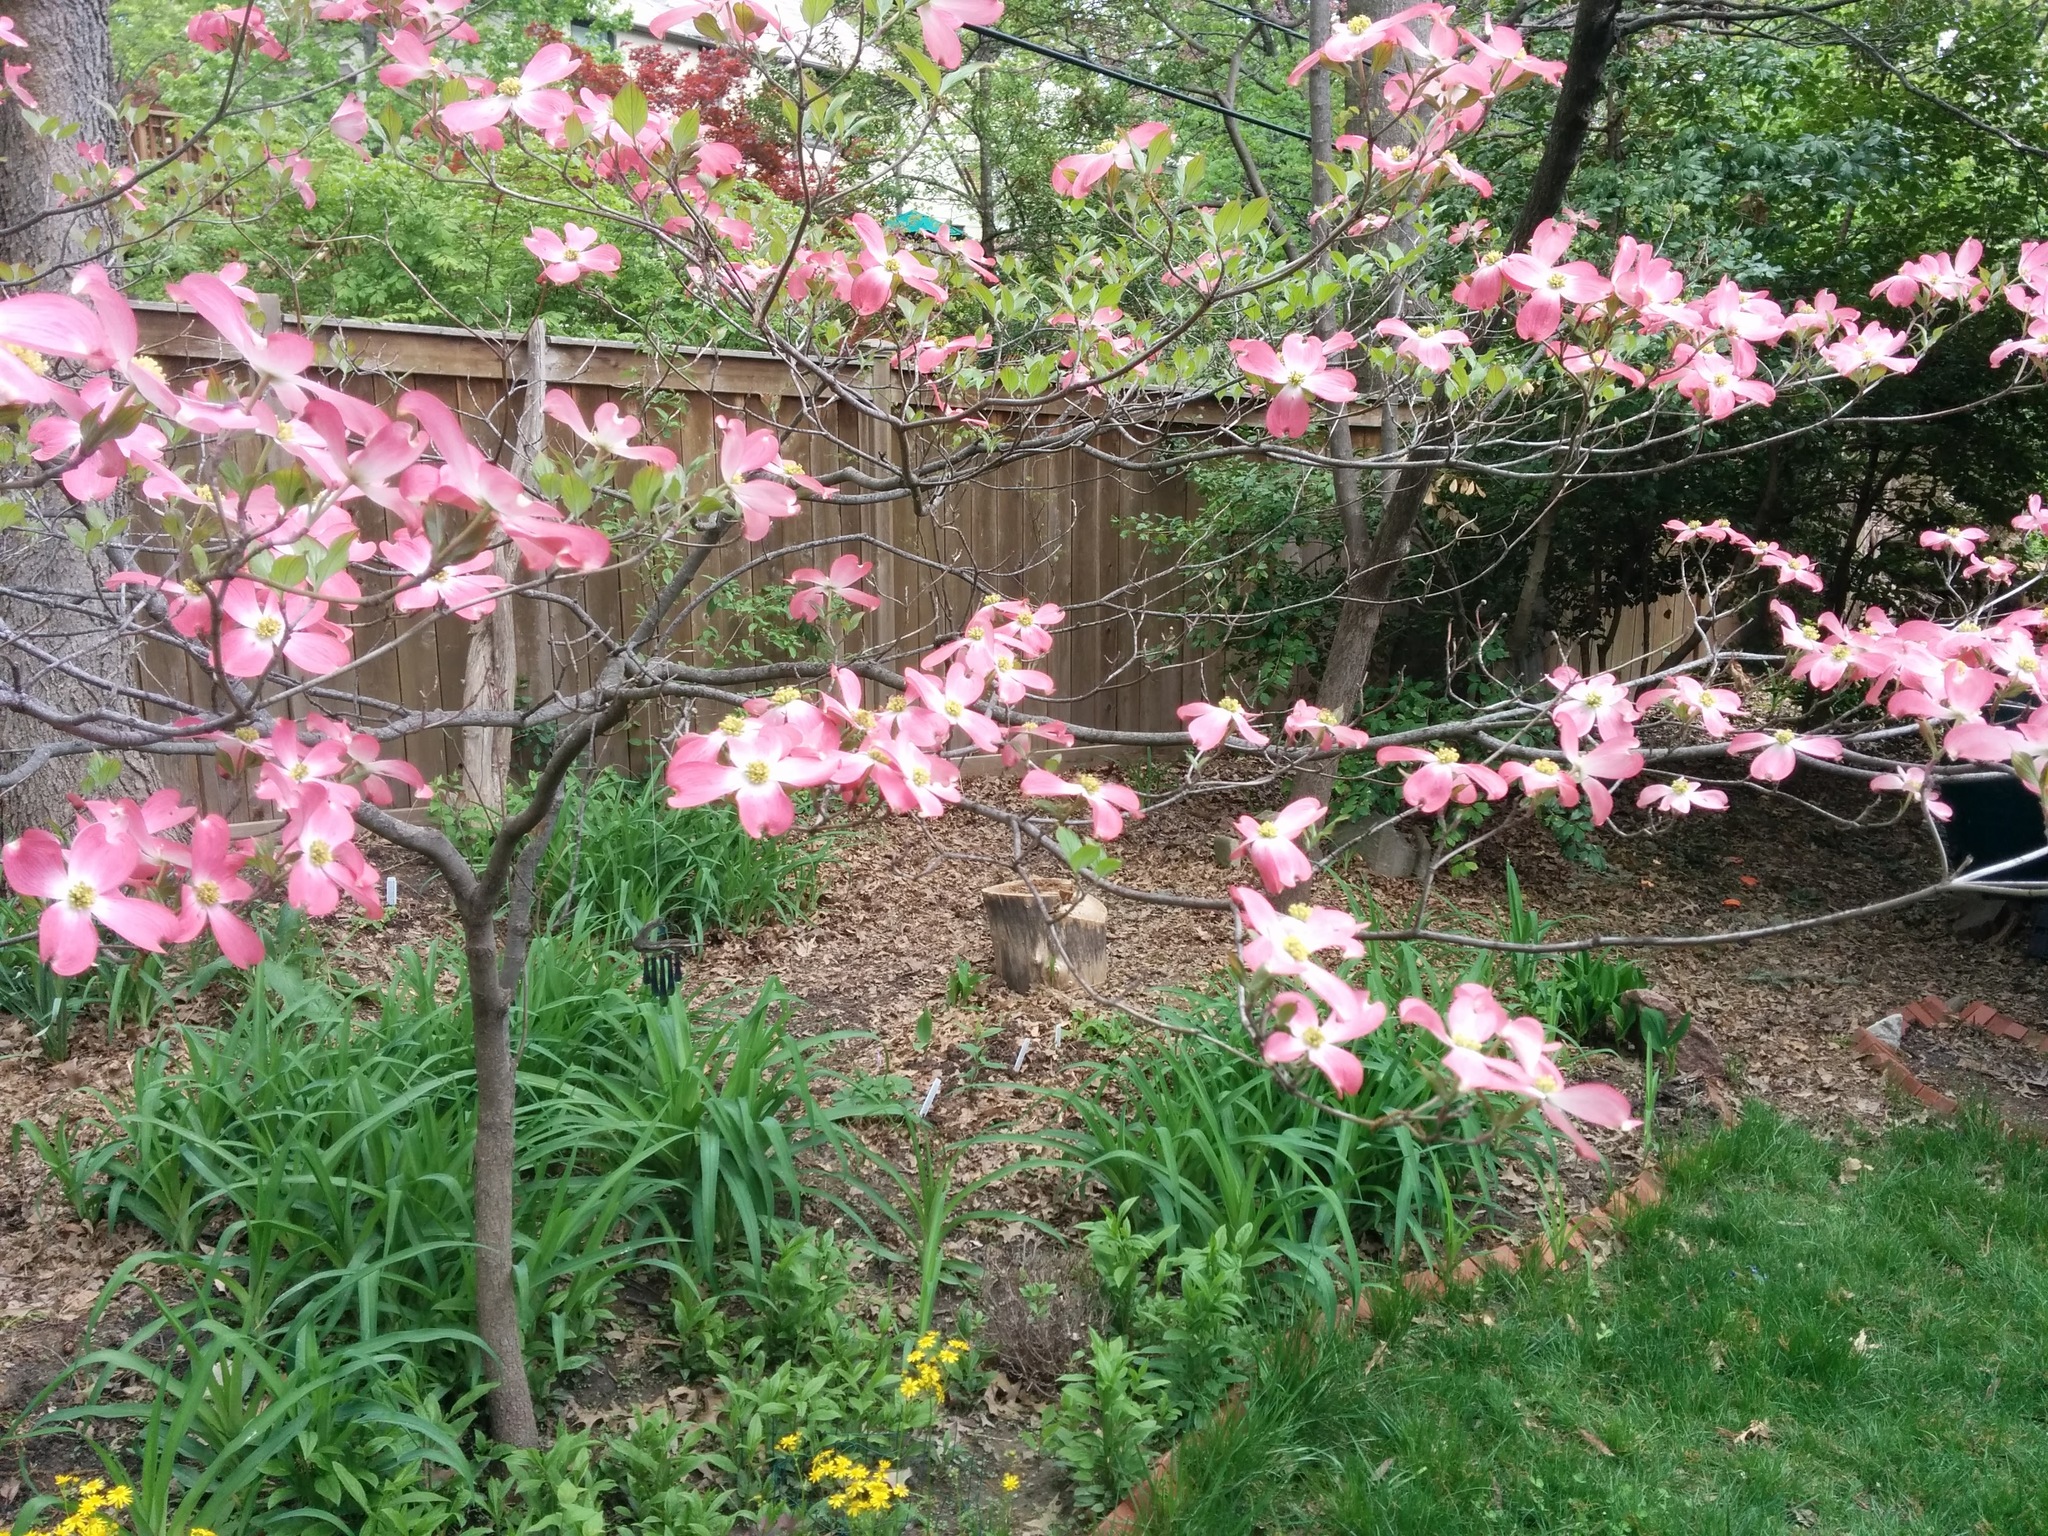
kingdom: Plantae
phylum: Tracheophyta
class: Magnoliopsida
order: Cornales
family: Cornaceae
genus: Cornus
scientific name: Cornus florida
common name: Flowering dogwood
